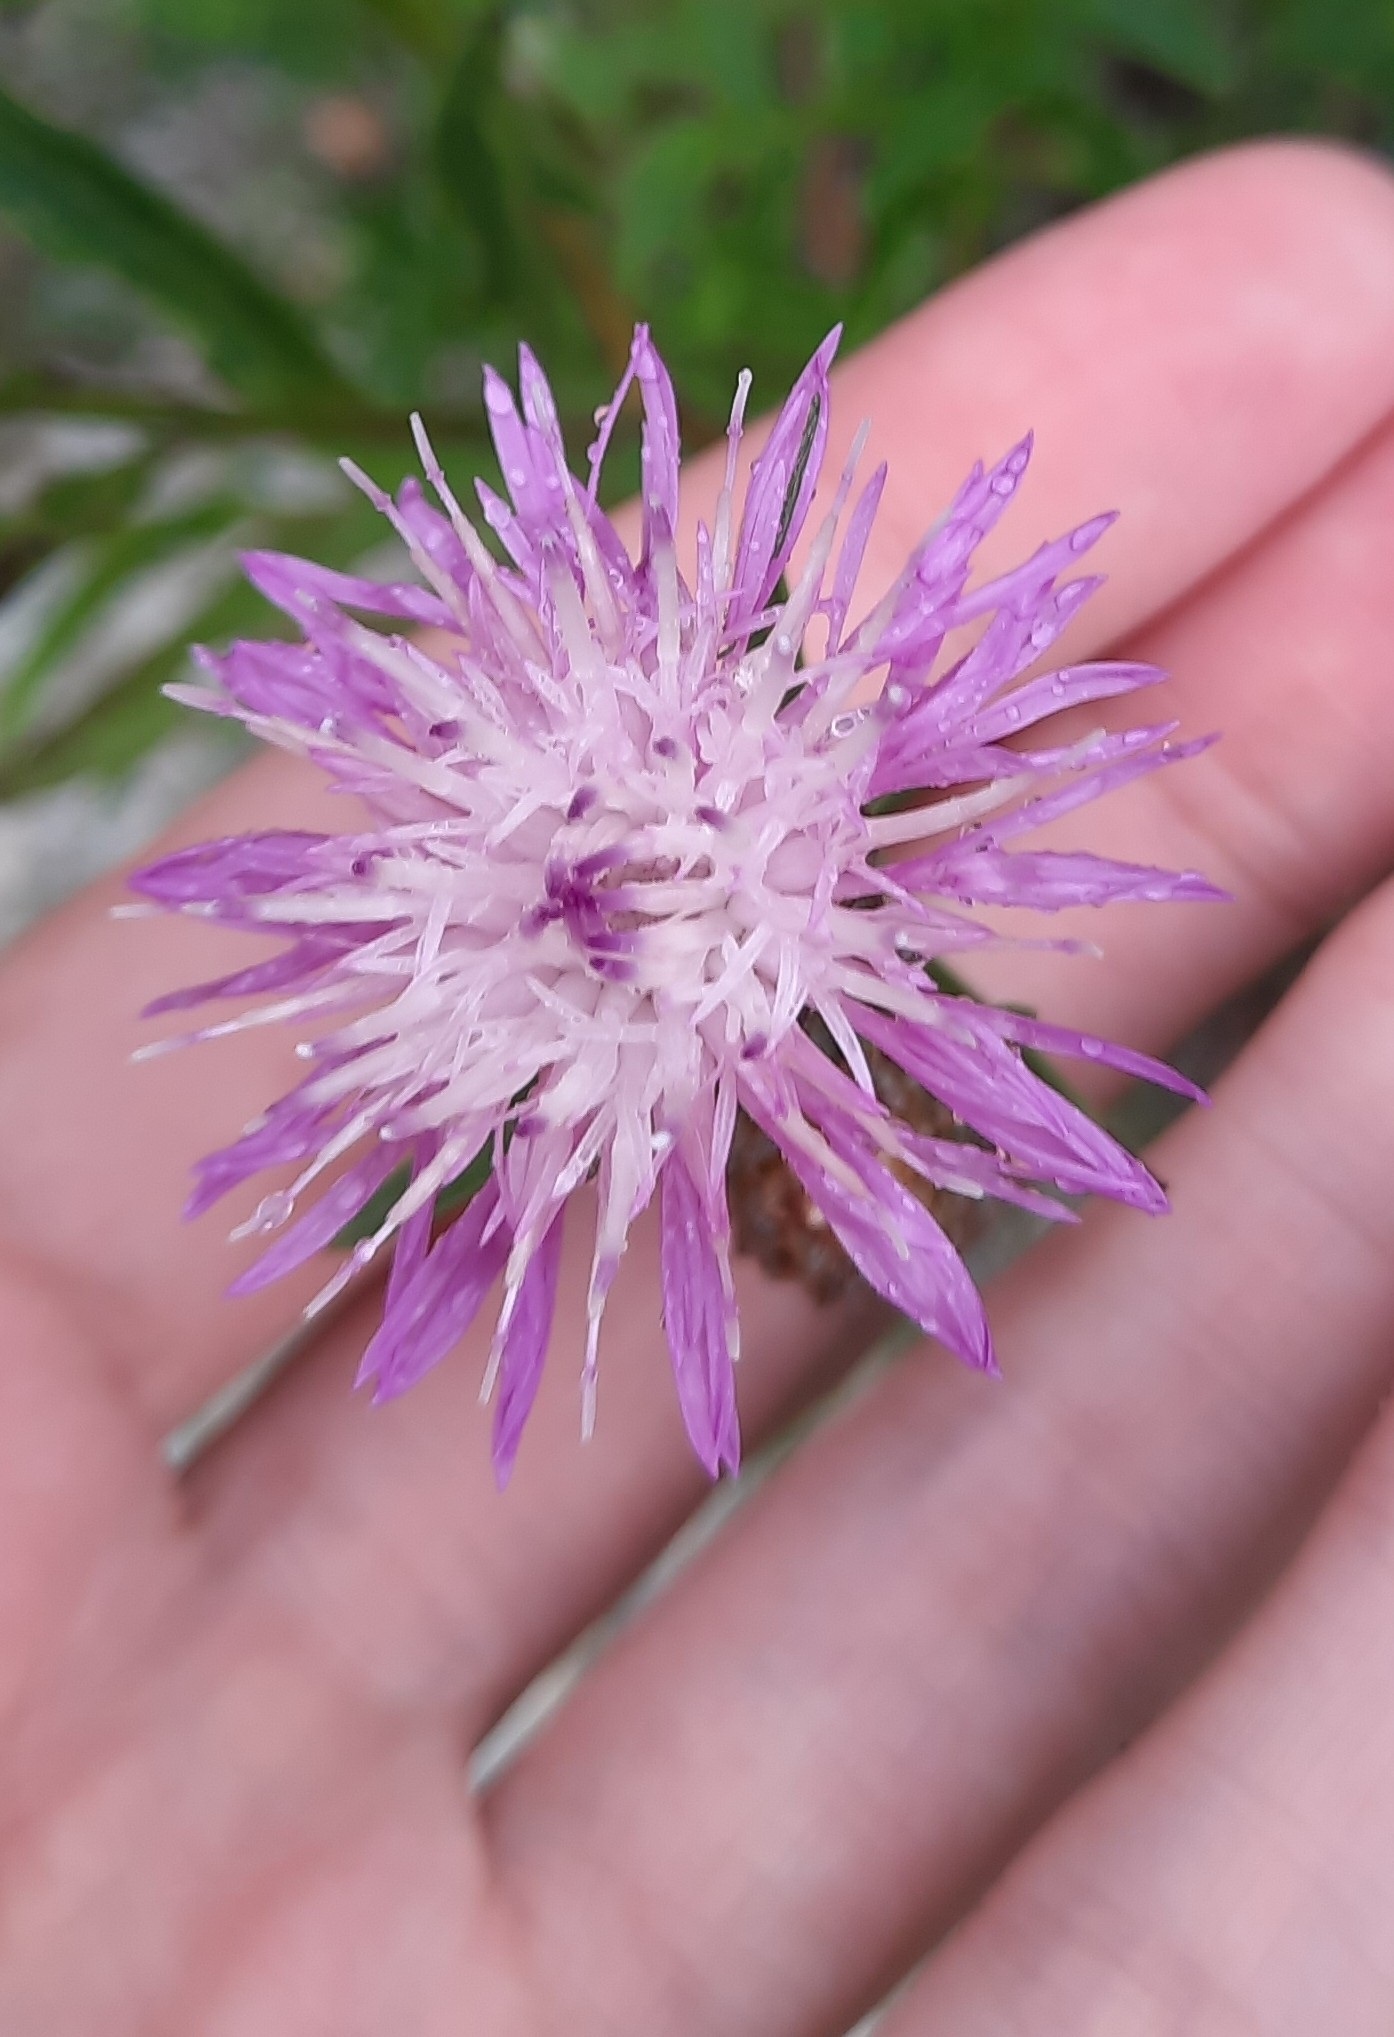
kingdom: Plantae
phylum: Tracheophyta
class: Magnoliopsida
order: Asterales
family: Asteraceae
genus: Centaurea
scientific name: Centaurea jacea
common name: Brown knapweed
